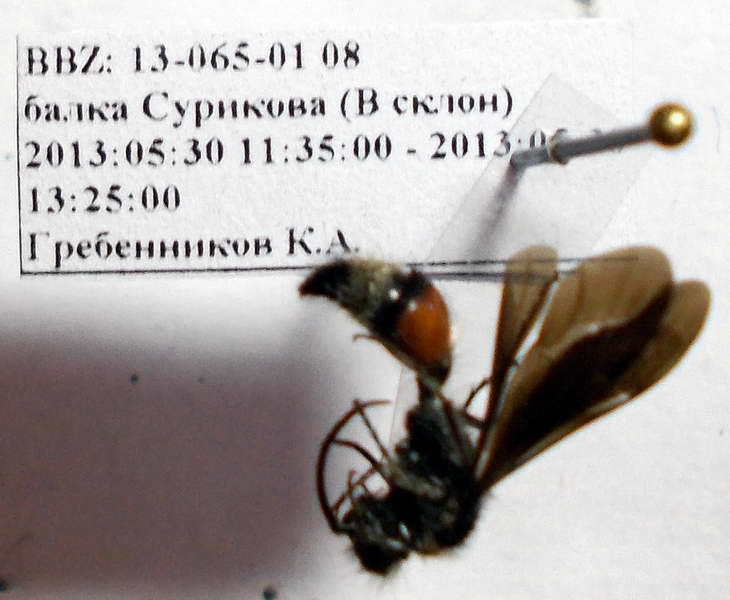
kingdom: Animalia
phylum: Arthropoda
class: Insecta
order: Hymenoptera
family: Mutillidae
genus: Nemka
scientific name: Nemka viduata
